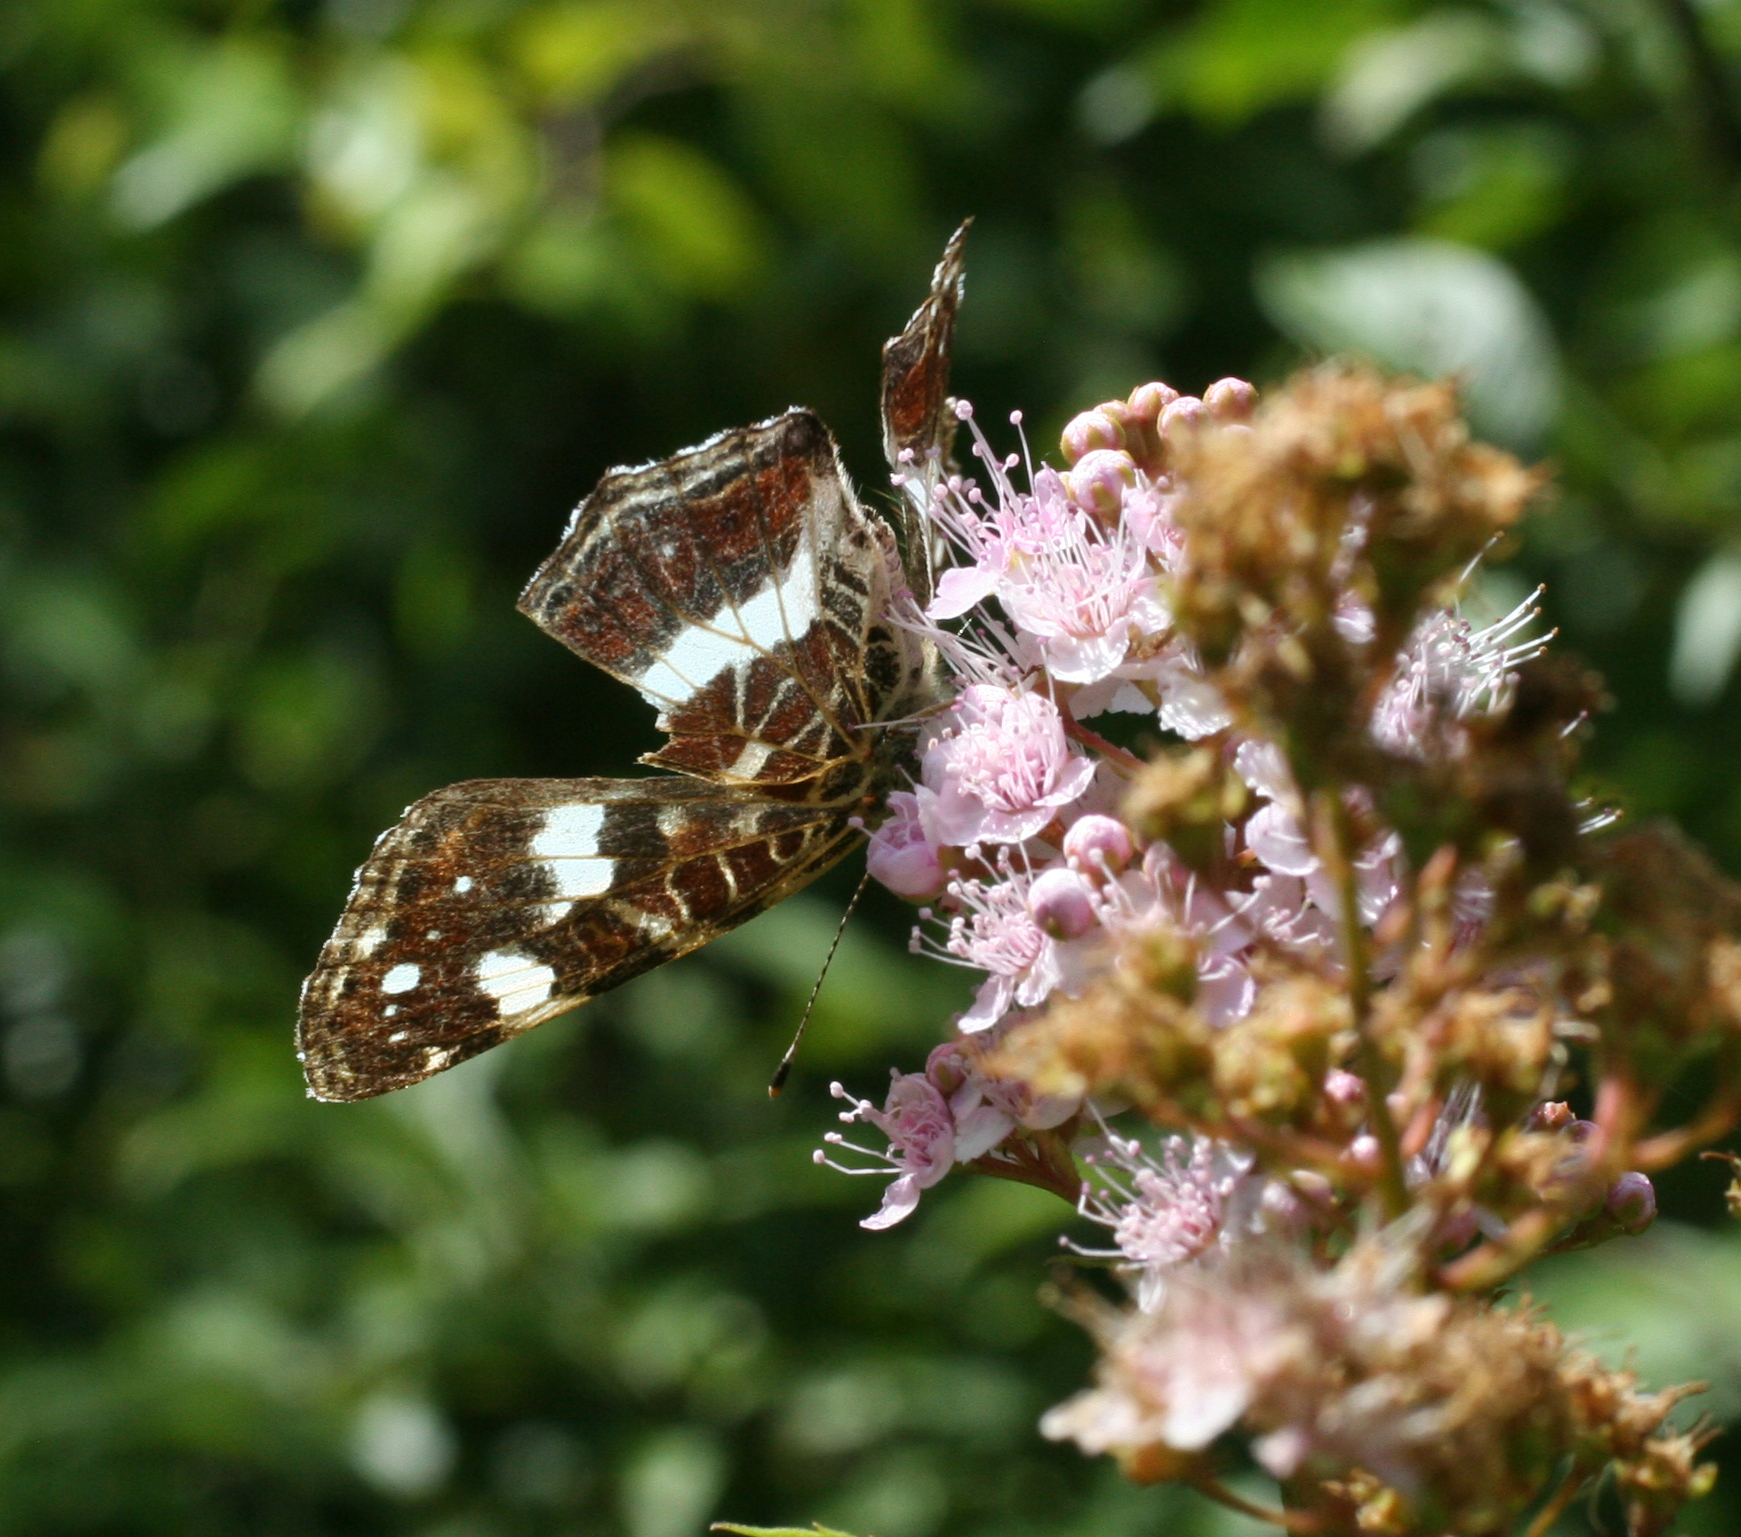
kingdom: Animalia
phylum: Arthropoda
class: Insecta
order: Lepidoptera
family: Nymphalidae
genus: Araschnia
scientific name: Araschnia levana
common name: Map butterfly
